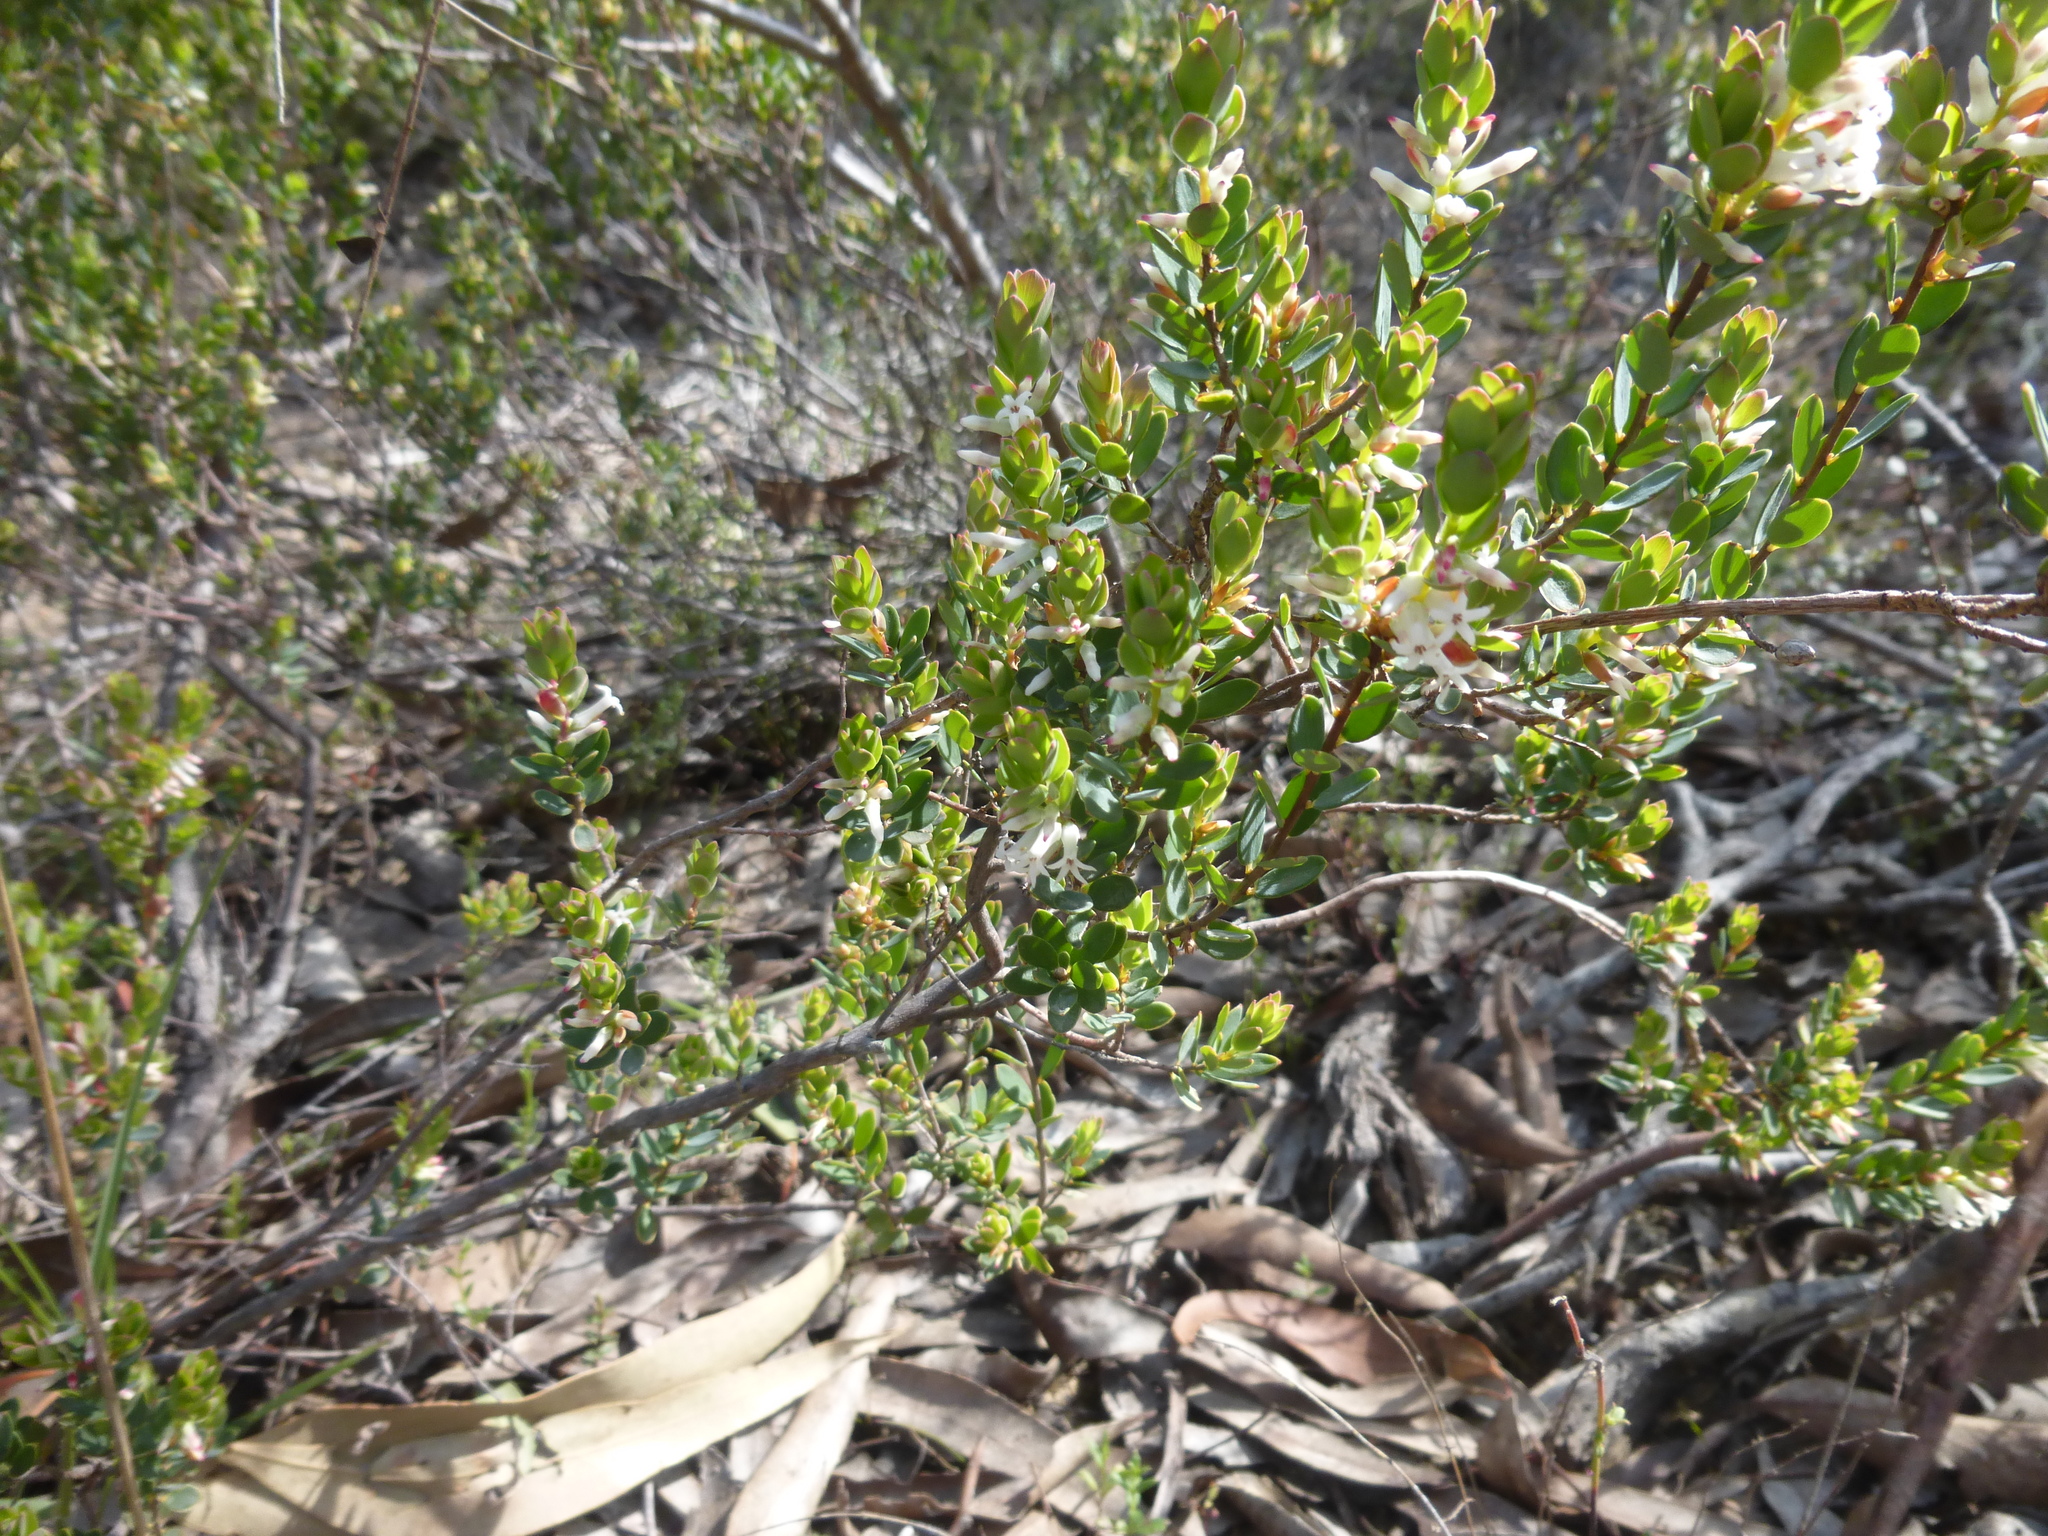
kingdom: Plantae
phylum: Tracheophyta
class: Magnoliopsida
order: Ericales
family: Ericaceae
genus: Brachyloma
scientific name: Brachyloma daphnoides
